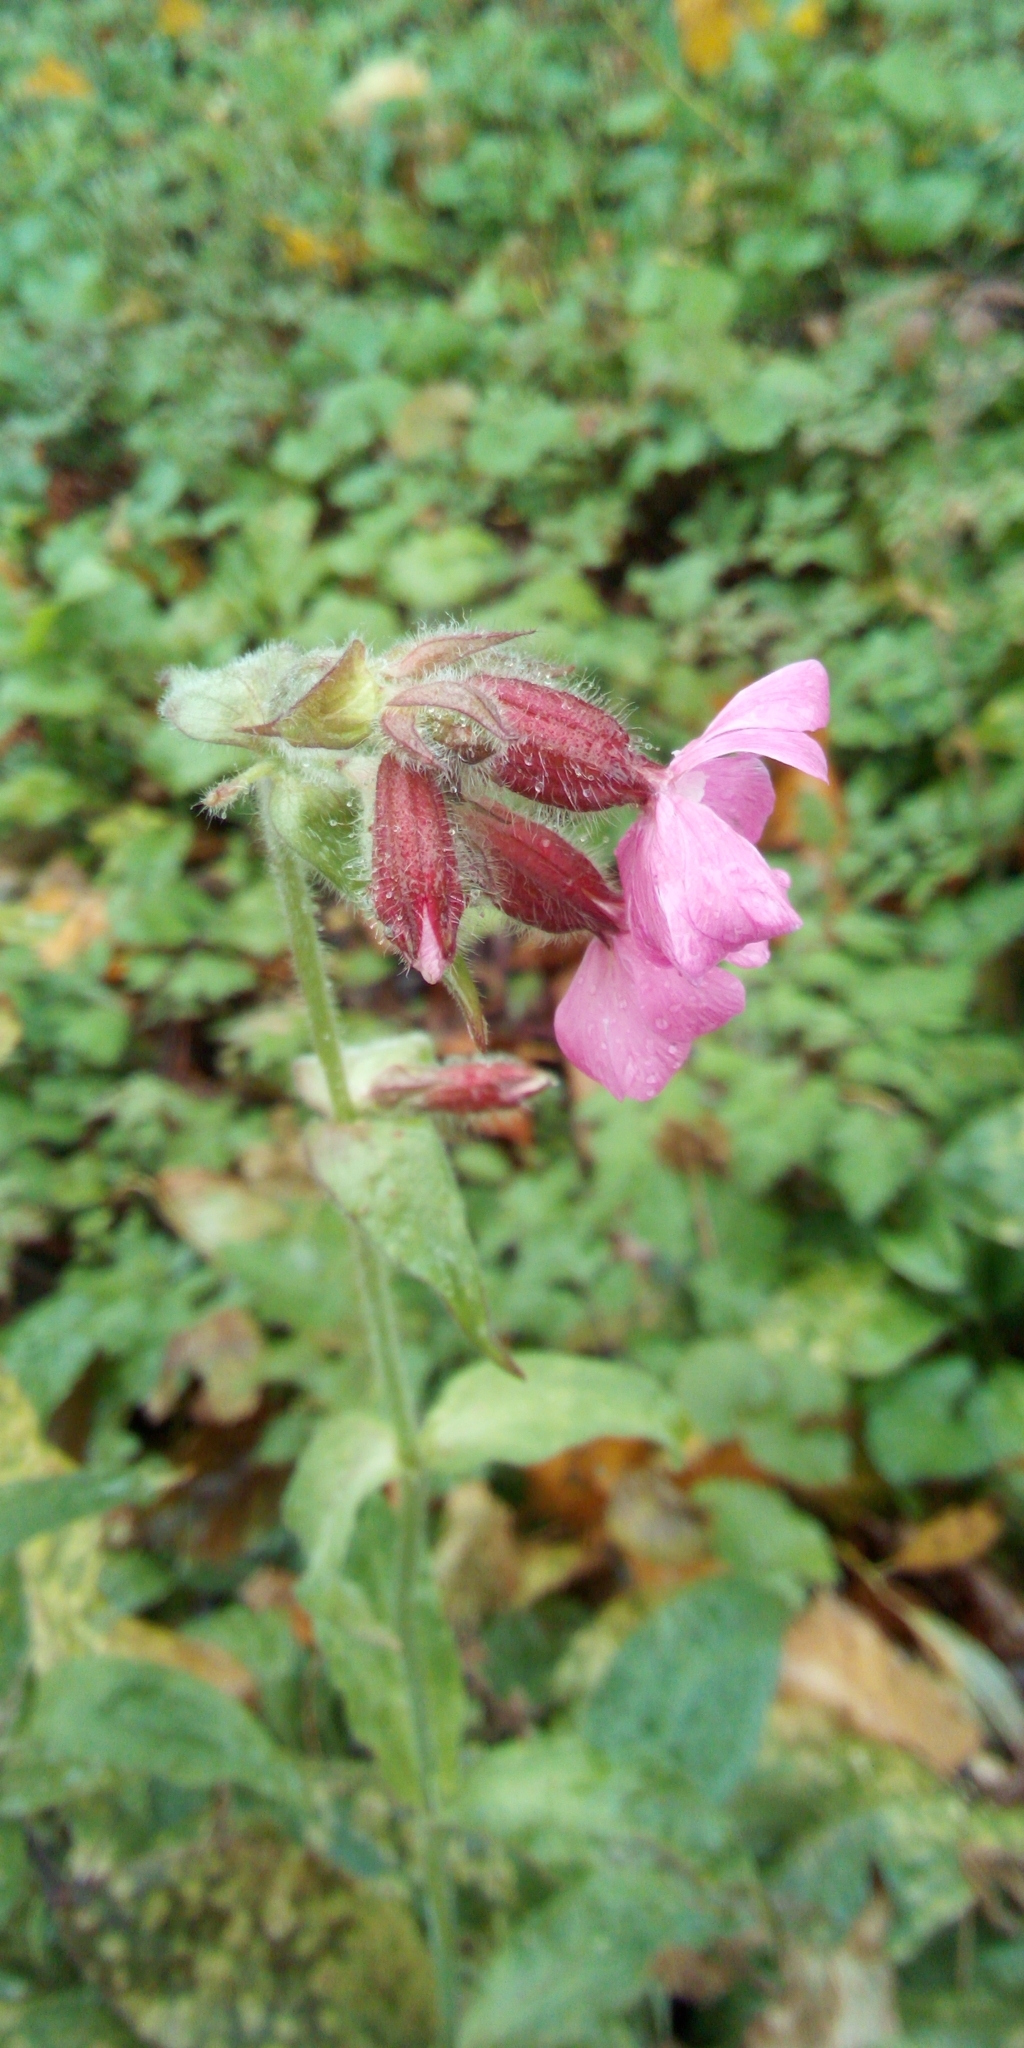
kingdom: Plantae
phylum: Tracheophyta
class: Magnoliopsida
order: Caryophyllales
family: Caryophyllaceae
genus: Silene
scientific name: Silene dioica
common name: Red campion
